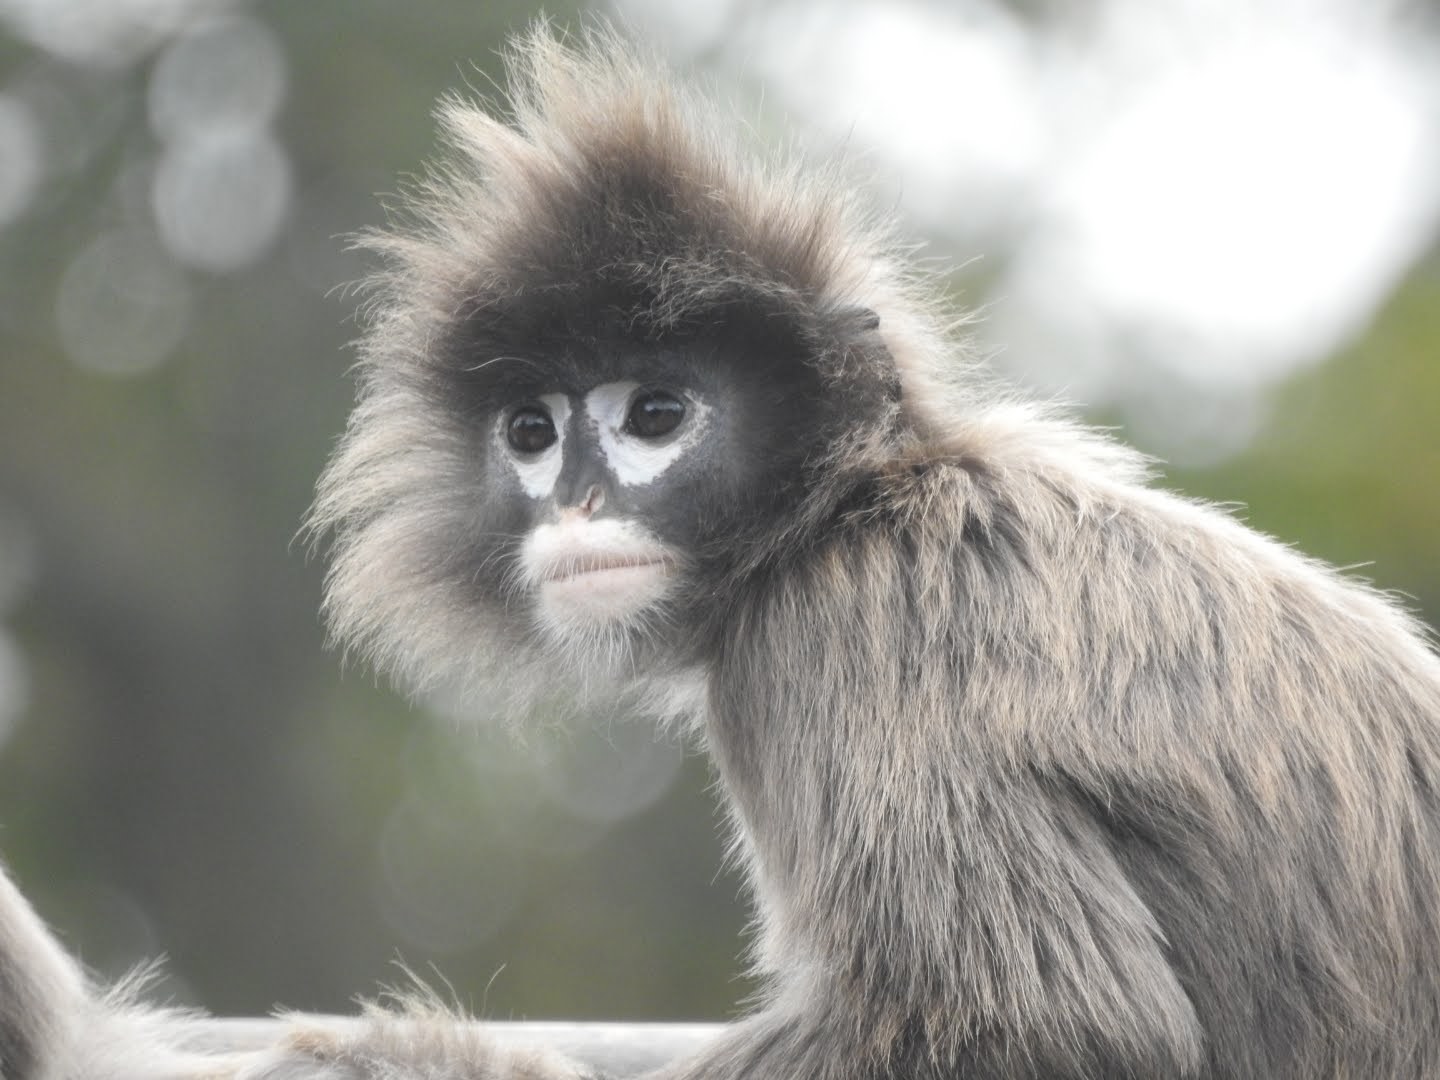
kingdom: Animalia
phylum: Chordata
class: Mammalia
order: Primates
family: Cercopithecidae
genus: Trachypithecus
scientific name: Trachypithecus phayrei
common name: Phayre's leaf monkey
